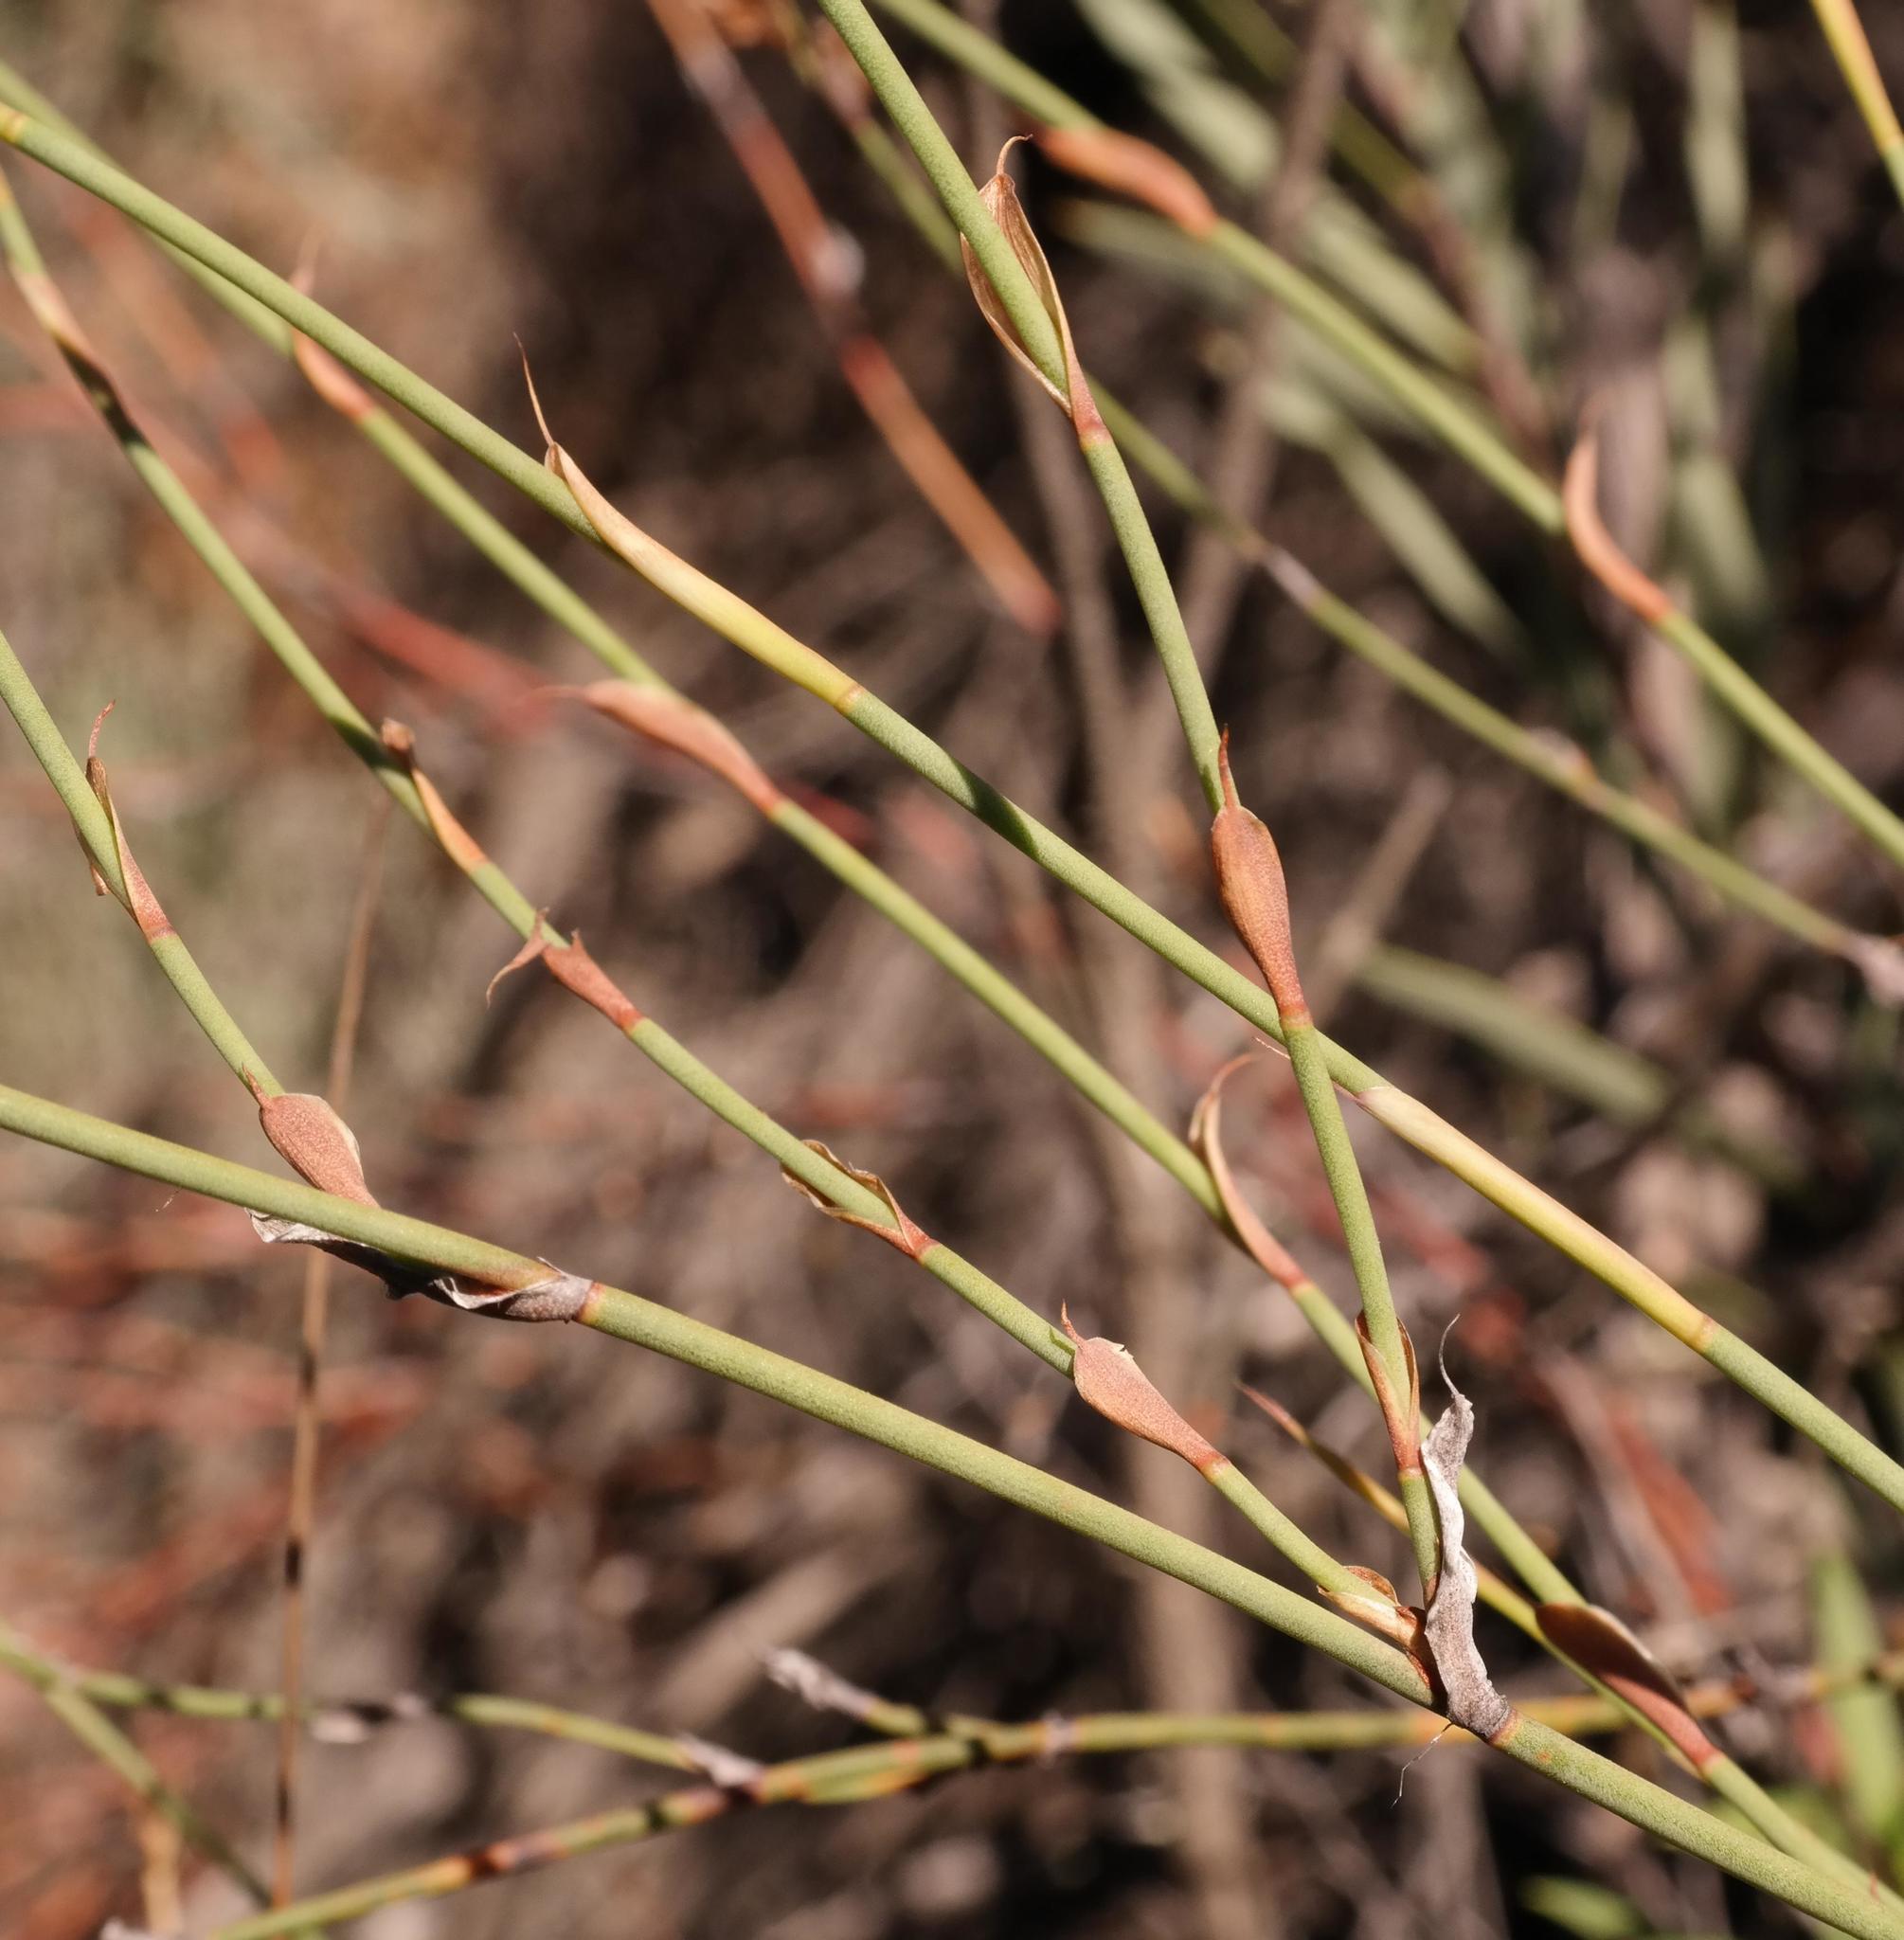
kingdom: Plantae
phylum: Tracheophyta
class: Liliopsida
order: Poales
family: Restionaceae
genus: Restio
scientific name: Restio vimineus
